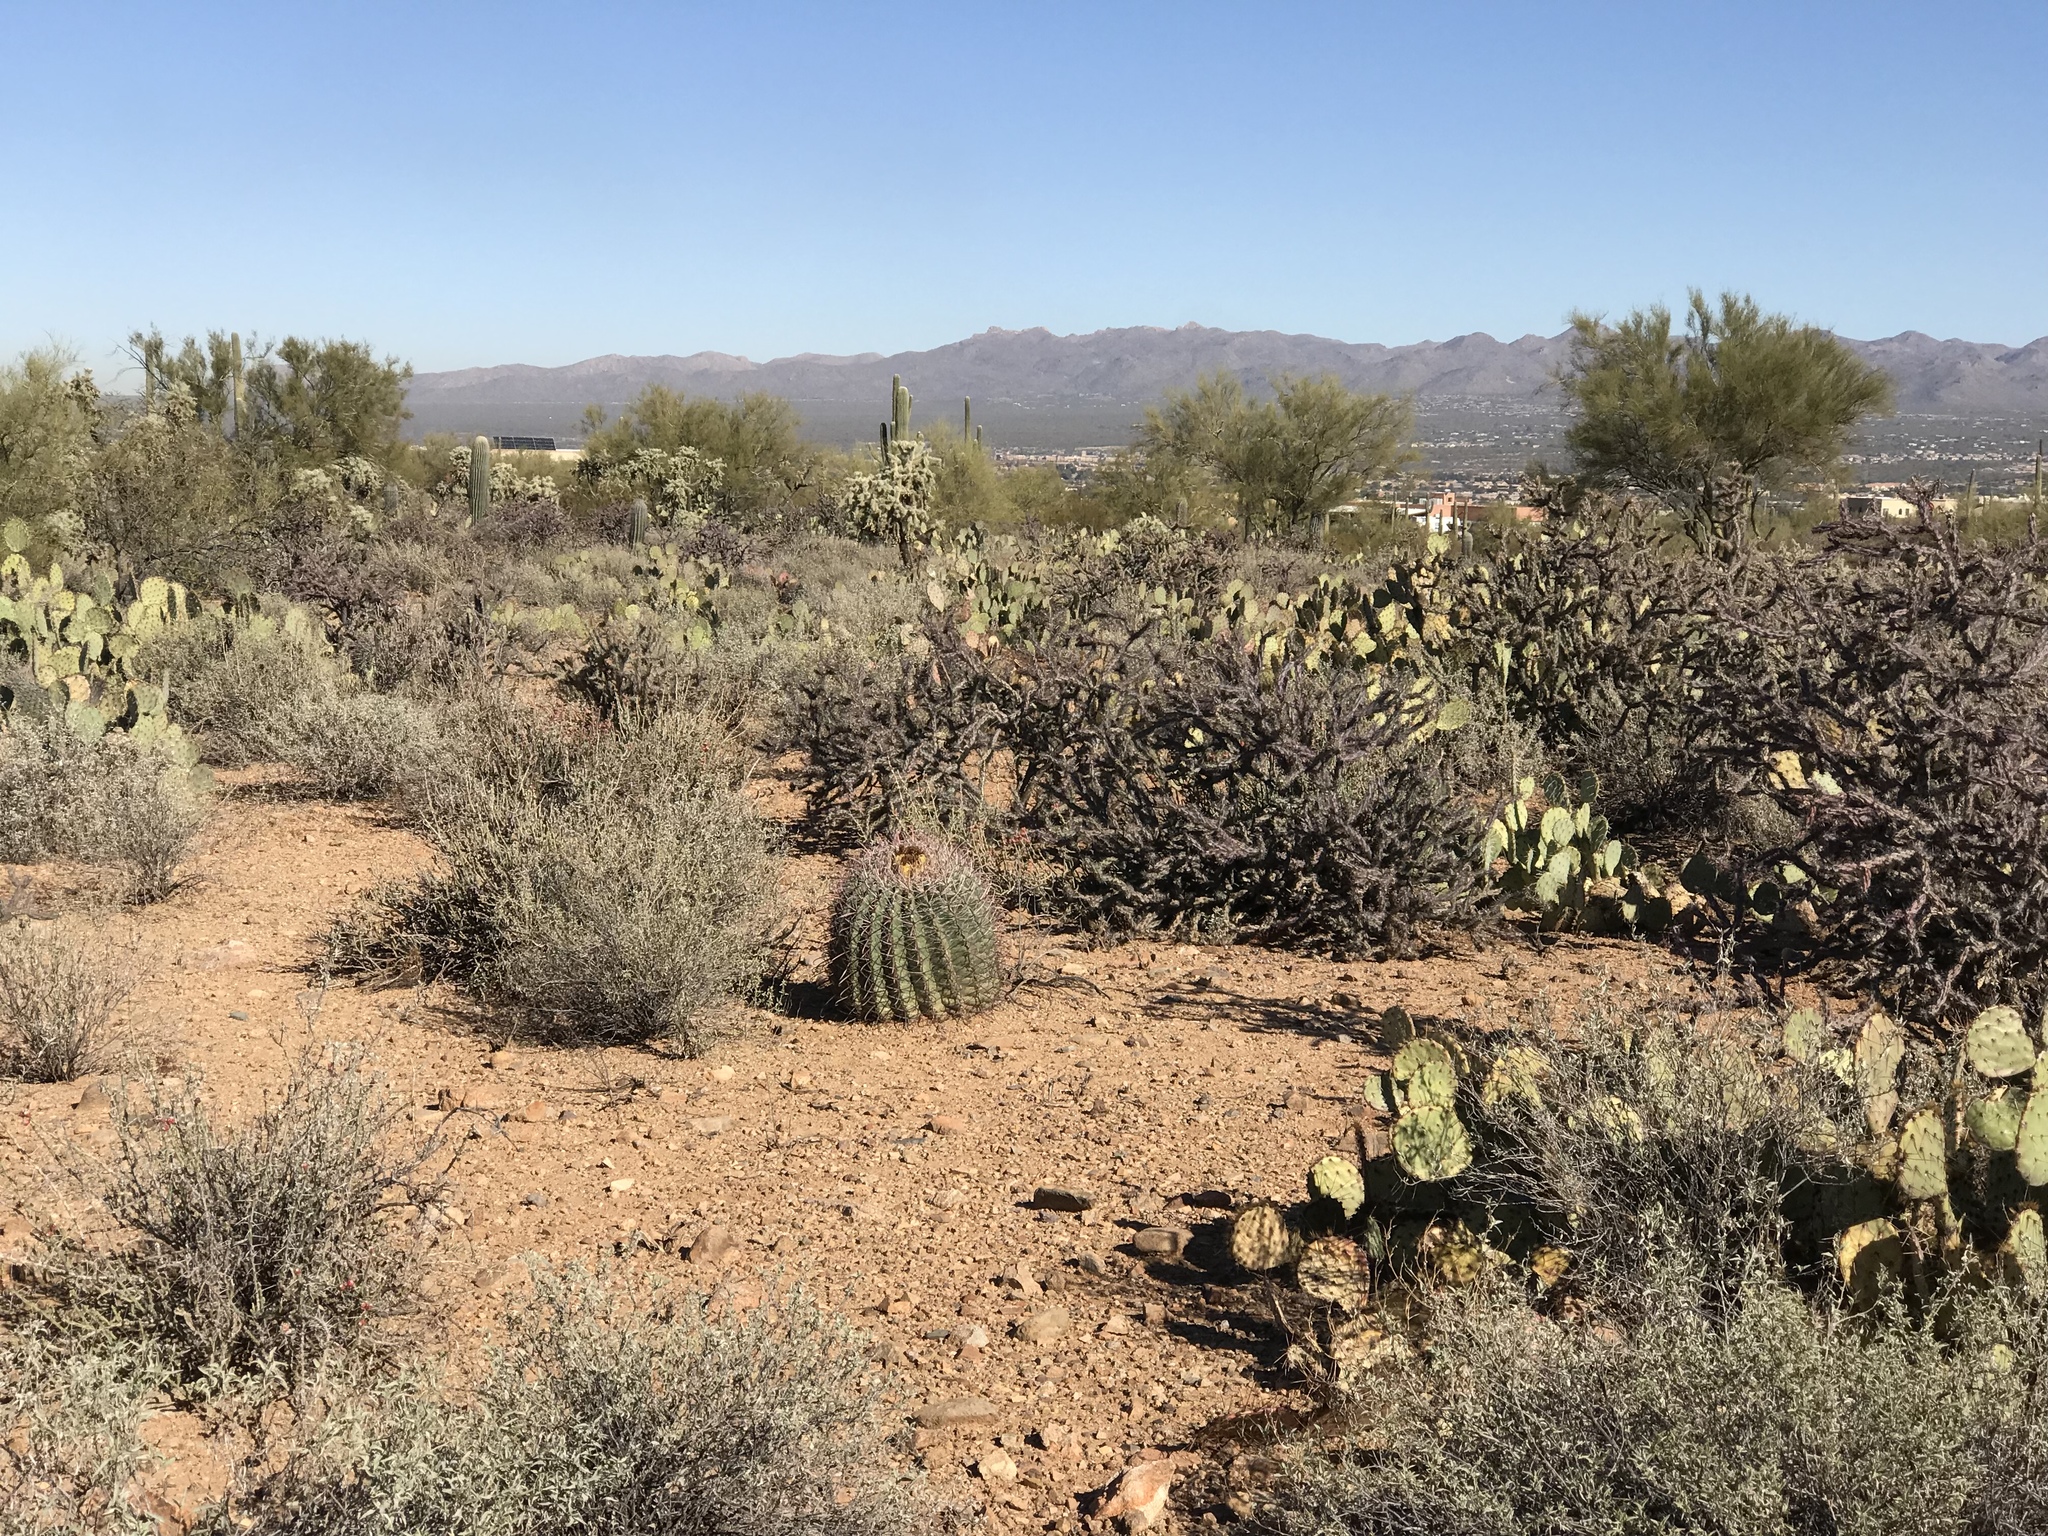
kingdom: Plantae
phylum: Tracheophyta
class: Magnoliopsida
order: Caryophyllales
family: Cactaceae
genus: Ferocactus
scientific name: Ferocactus wislizeni
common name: Candy barrel cactus
